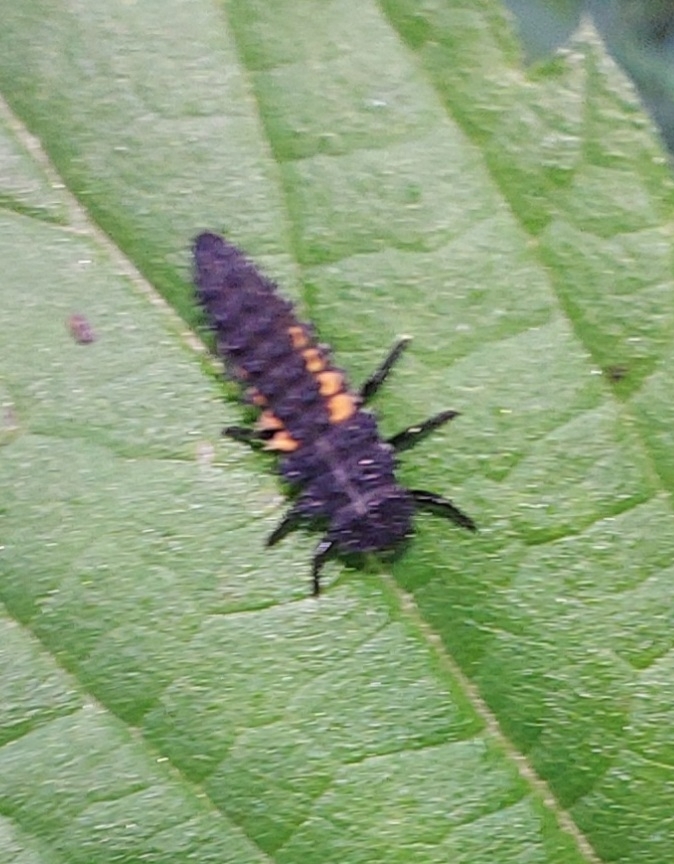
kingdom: Animalia
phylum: Arthropoda
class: Insecta
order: Coleoptera
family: Coccinellidae
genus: Harmonia
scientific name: Harmonia axyridis
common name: Harlequin ladybird
